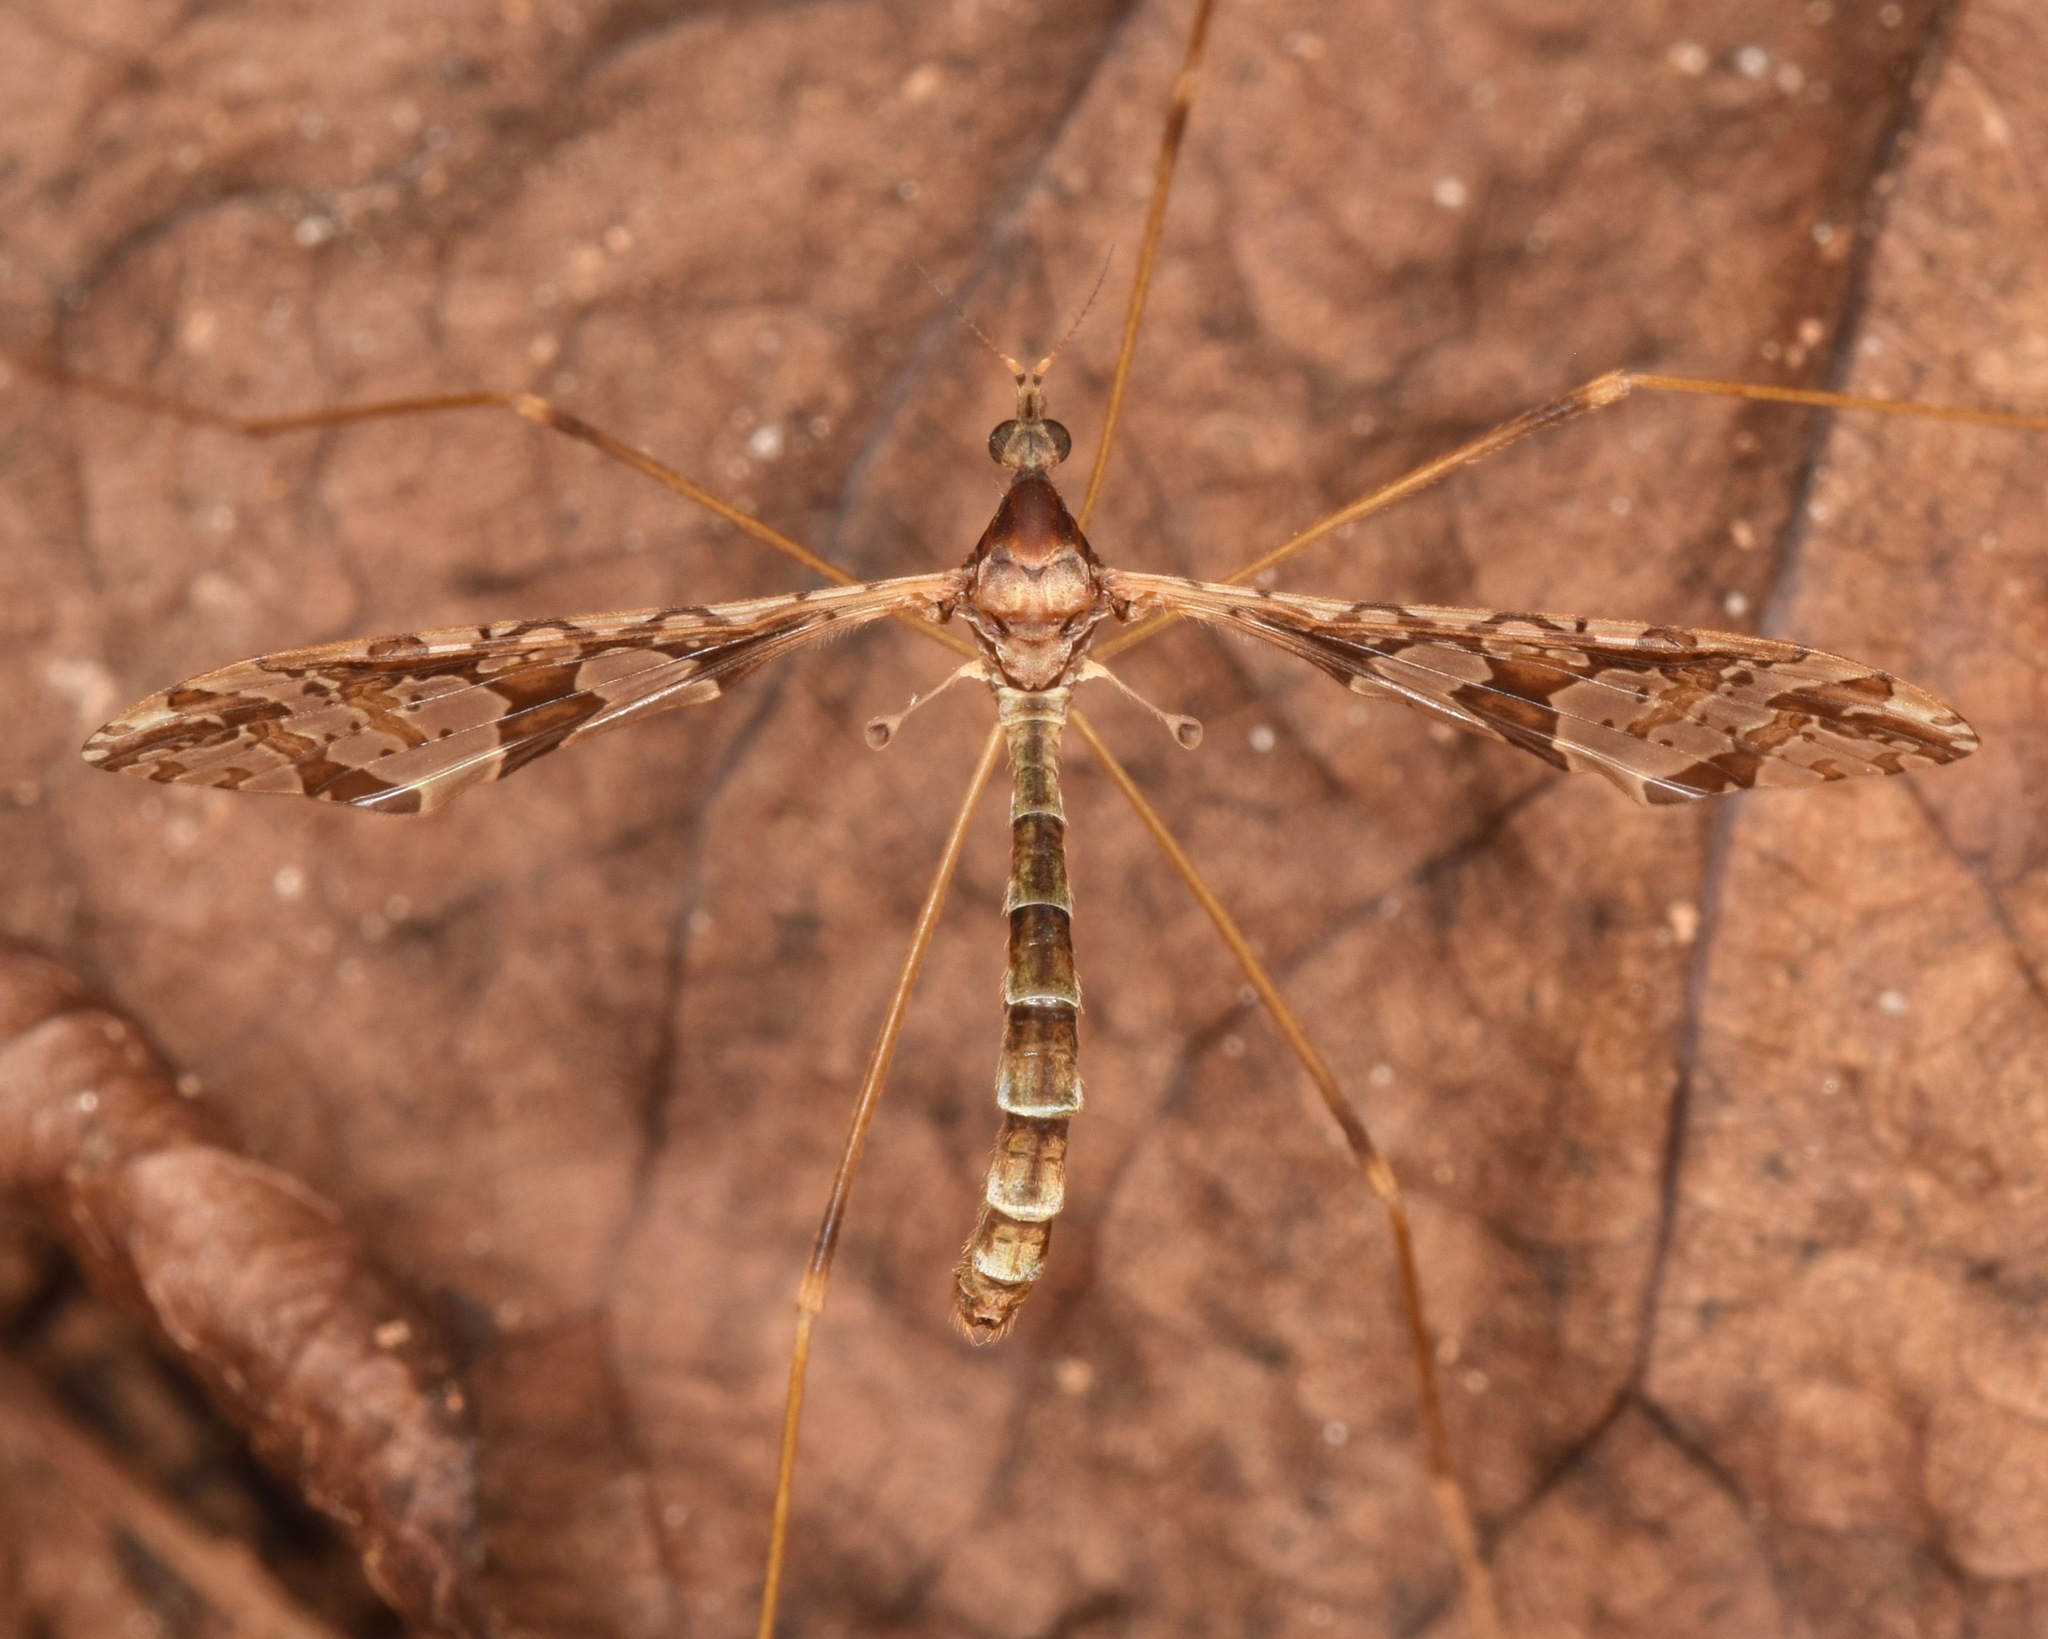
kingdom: Animalia
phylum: Arthropoda
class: Insecta
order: Diptera
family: Limoniidae
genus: Epiphragma
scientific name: Epiphragma solatrix
